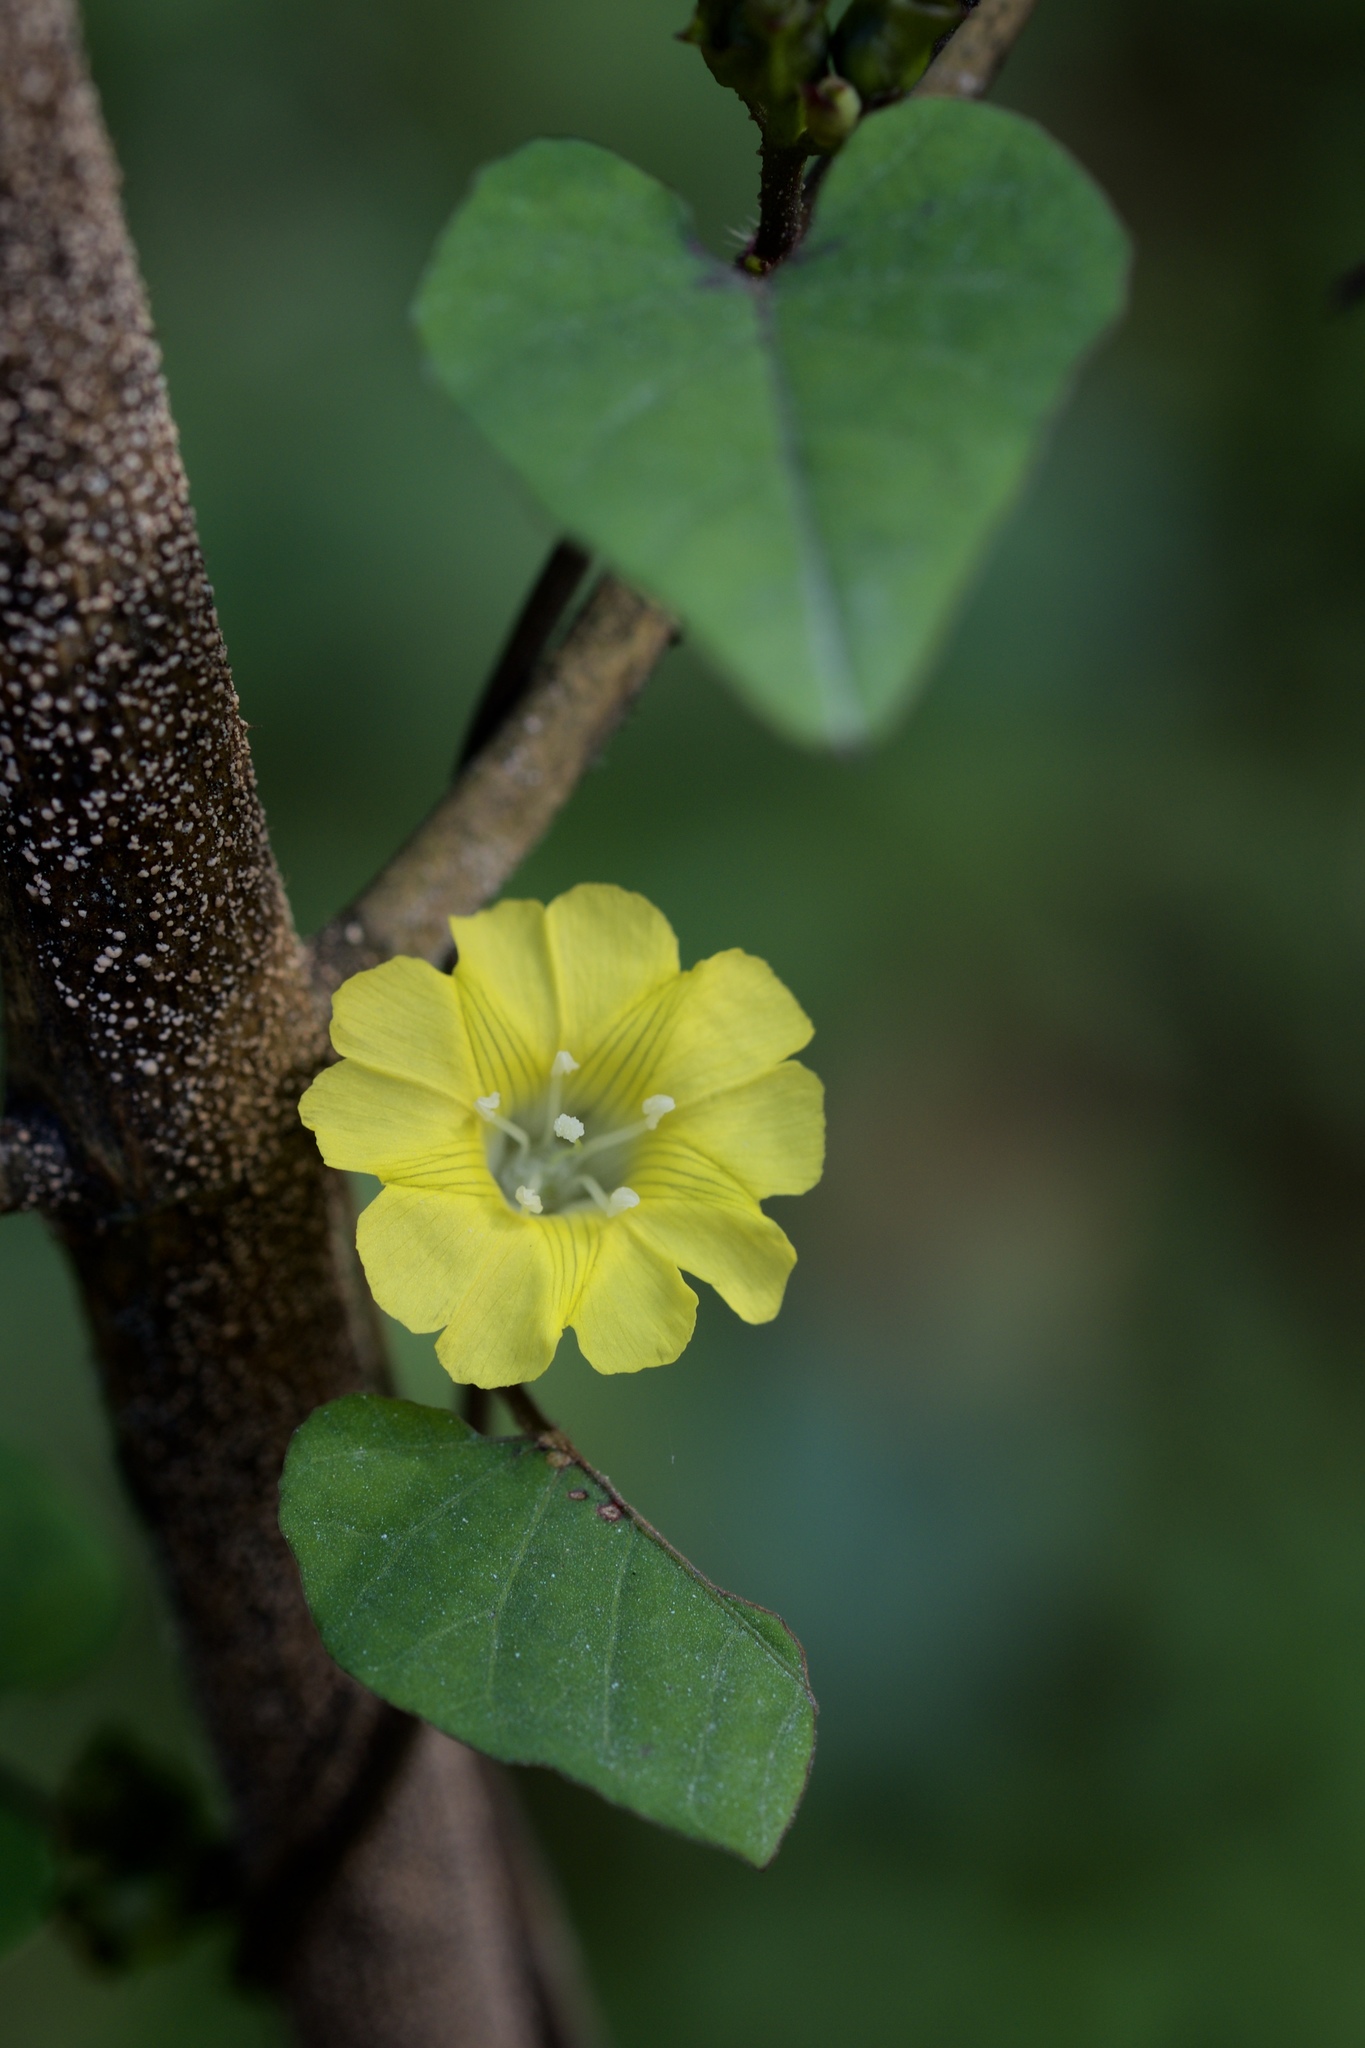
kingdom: Plantae
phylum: Tracheophyta
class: Magnoliopsida
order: Solanales
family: Convolvulaceae
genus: Merremia
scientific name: Merremia hederacea
